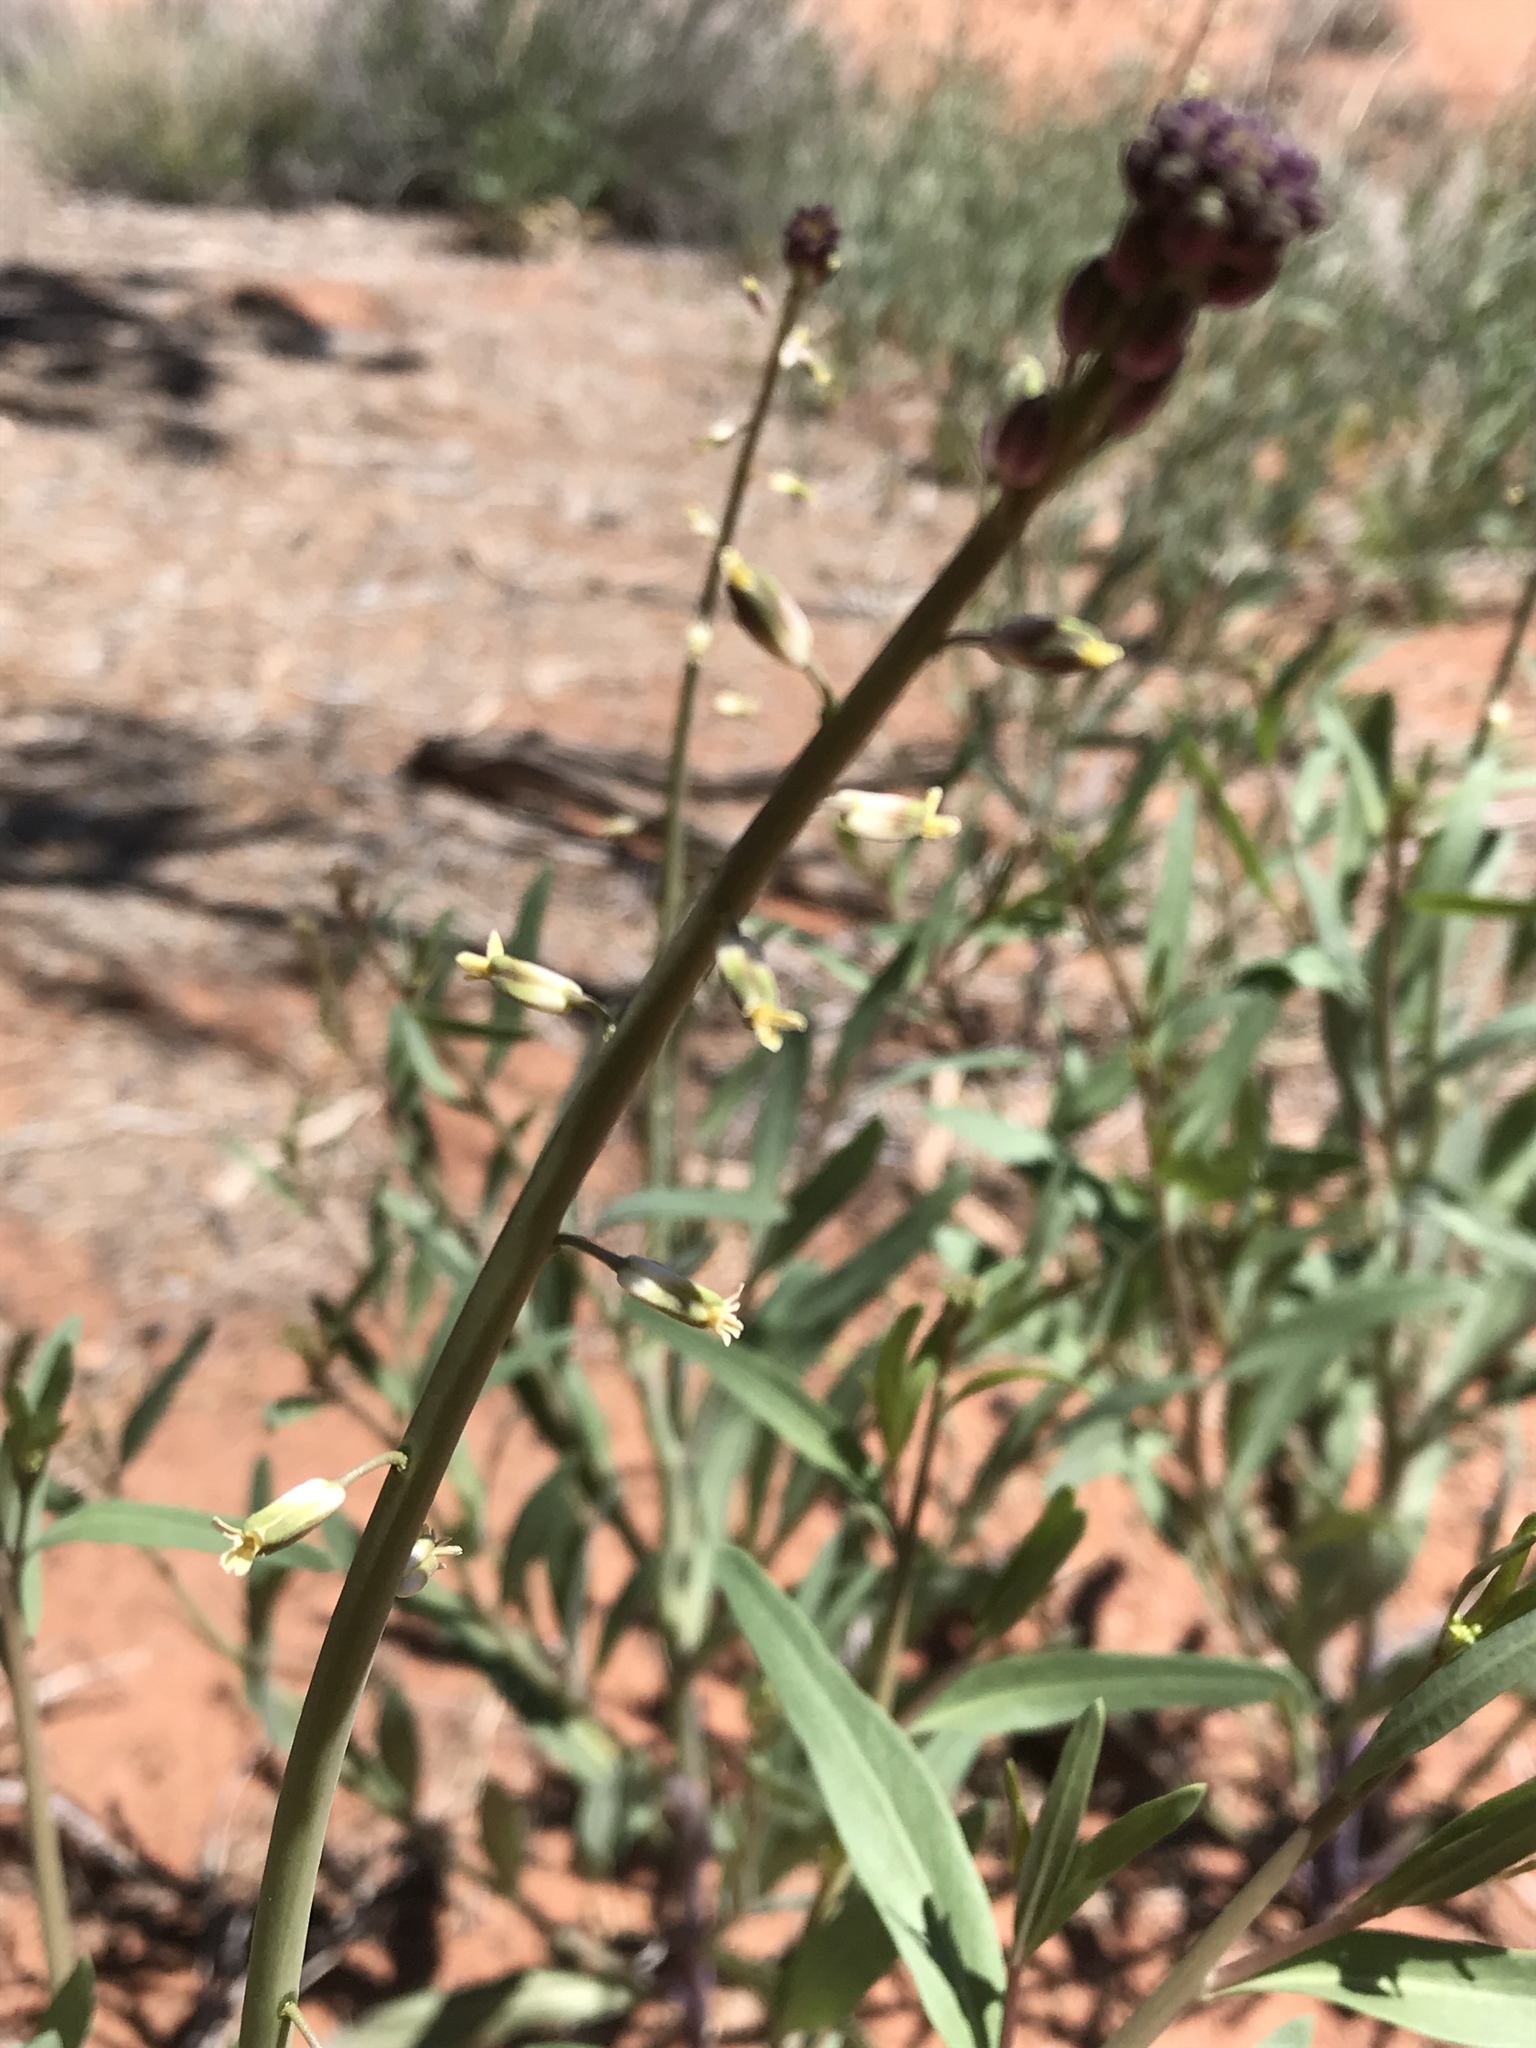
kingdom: Plantae
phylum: Tracheophyta
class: Magnoliopsida
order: Brassicales
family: Brassicaceae
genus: Streptanthus
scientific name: Streptanthus longirostris
